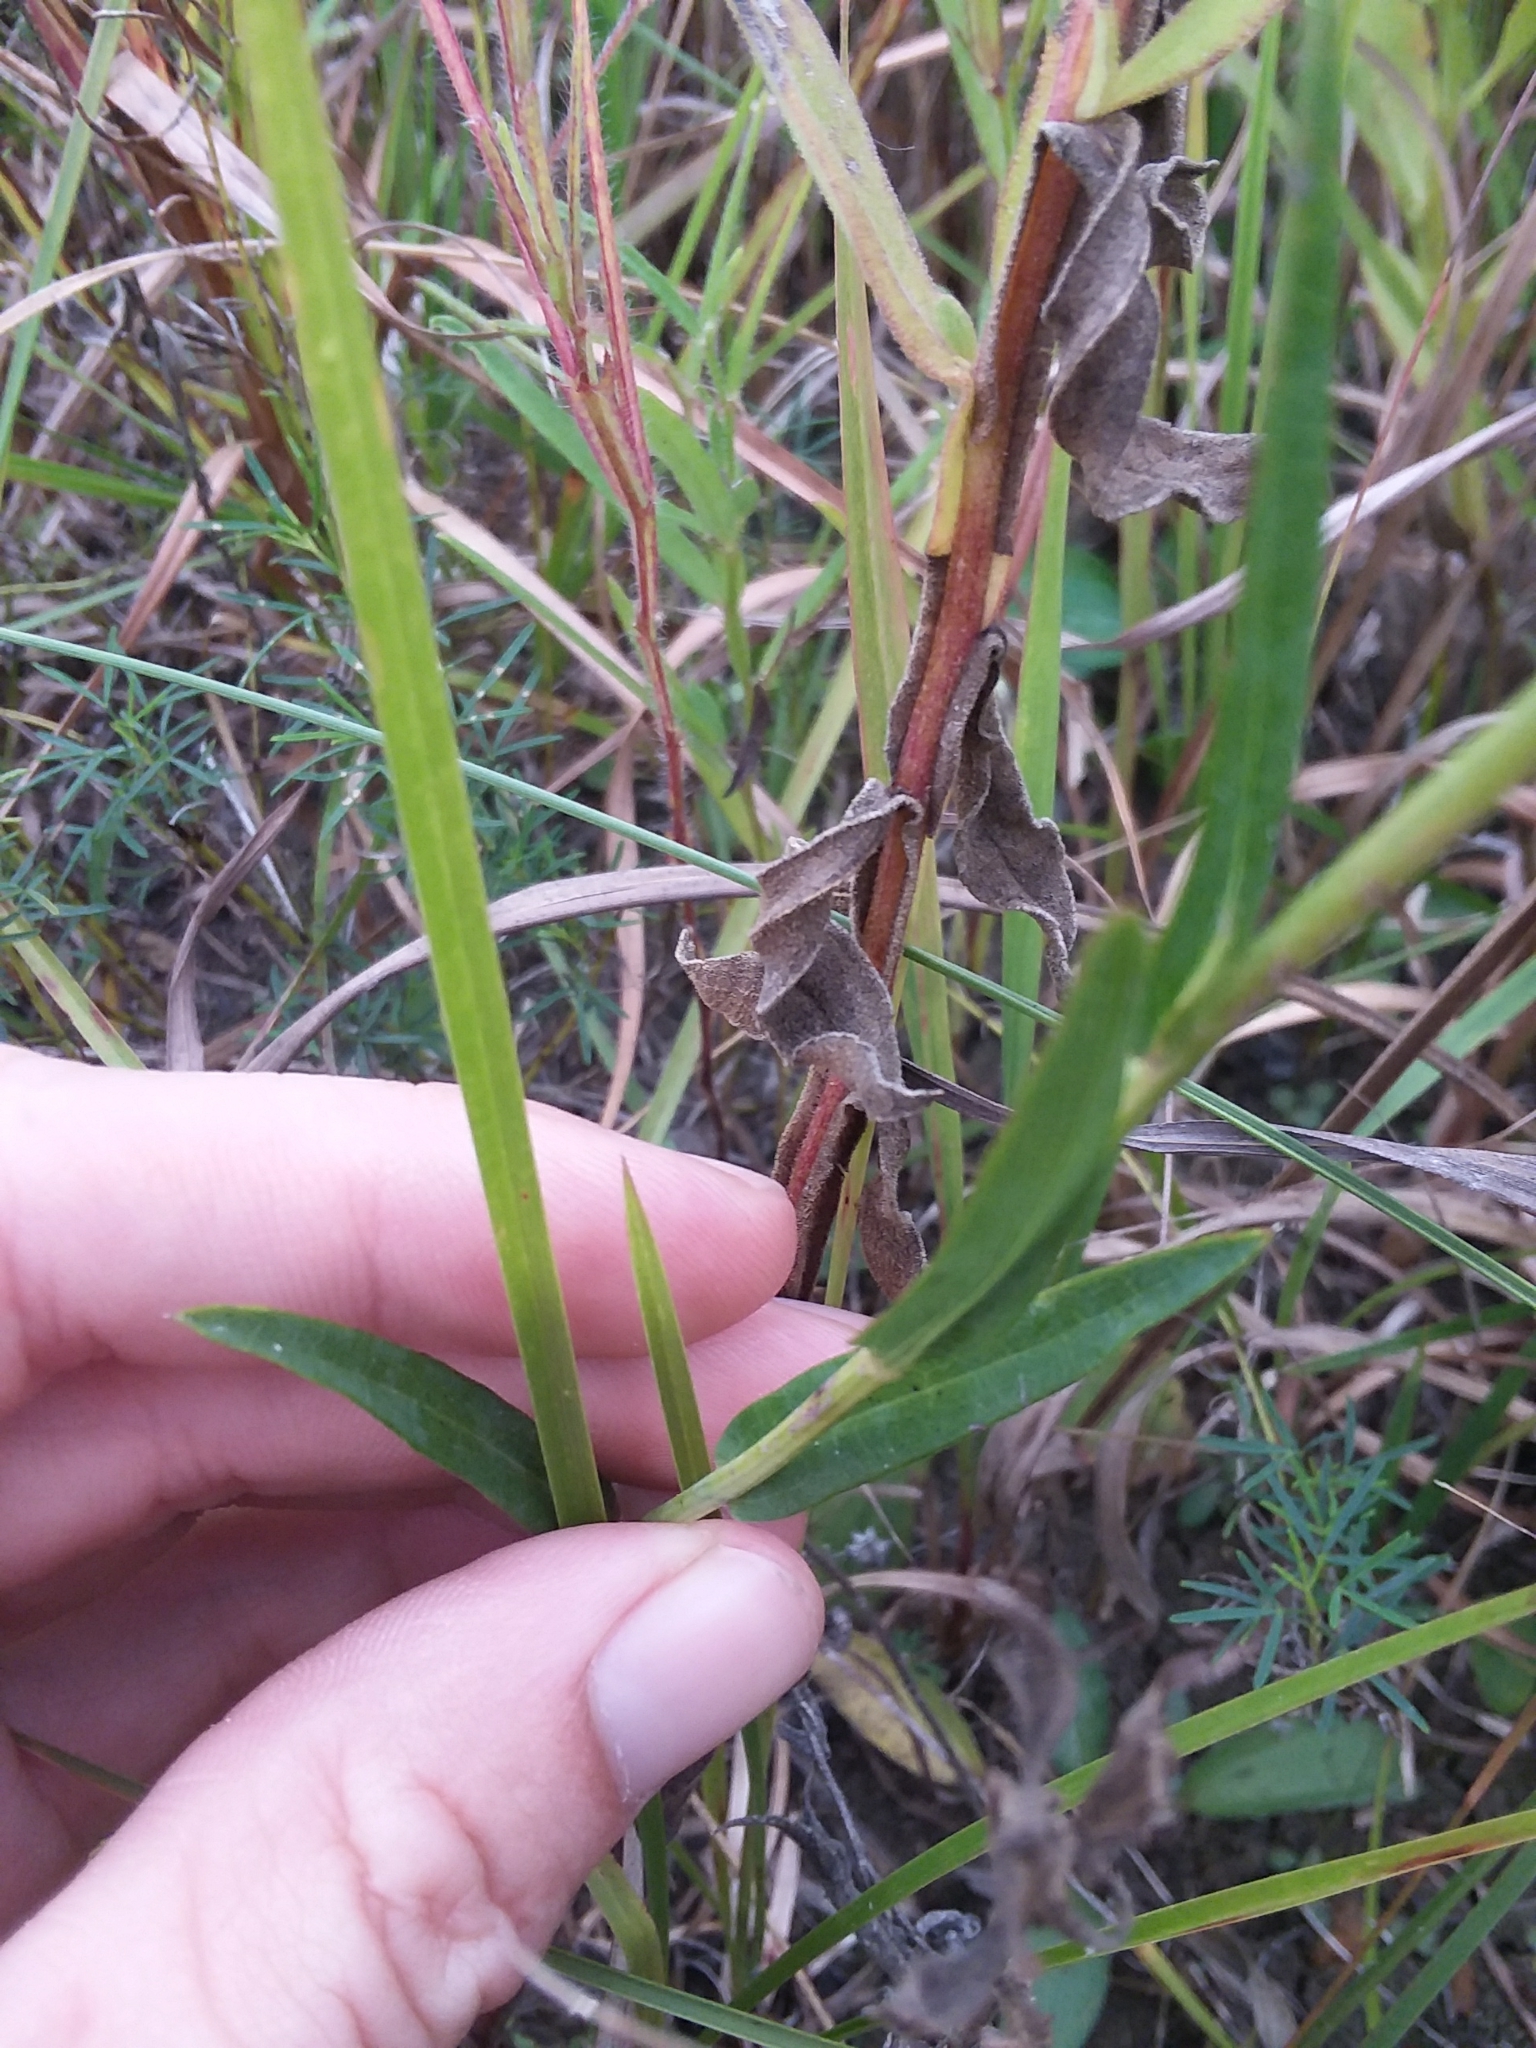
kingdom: Plantae
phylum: Tracheophyta
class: Magnoliopsida
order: Asterales
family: Asteraceae
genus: Symphyotrichum
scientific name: Symphyotrichum laeve
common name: Glaucous aster
